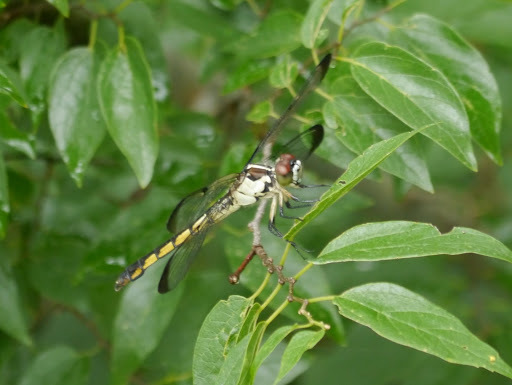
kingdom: Animalia
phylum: Arthropoda
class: Insecta
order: Odonata
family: Libellulidae
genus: Libellula
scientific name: Libellula vibrans
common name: Great blue skimmer
